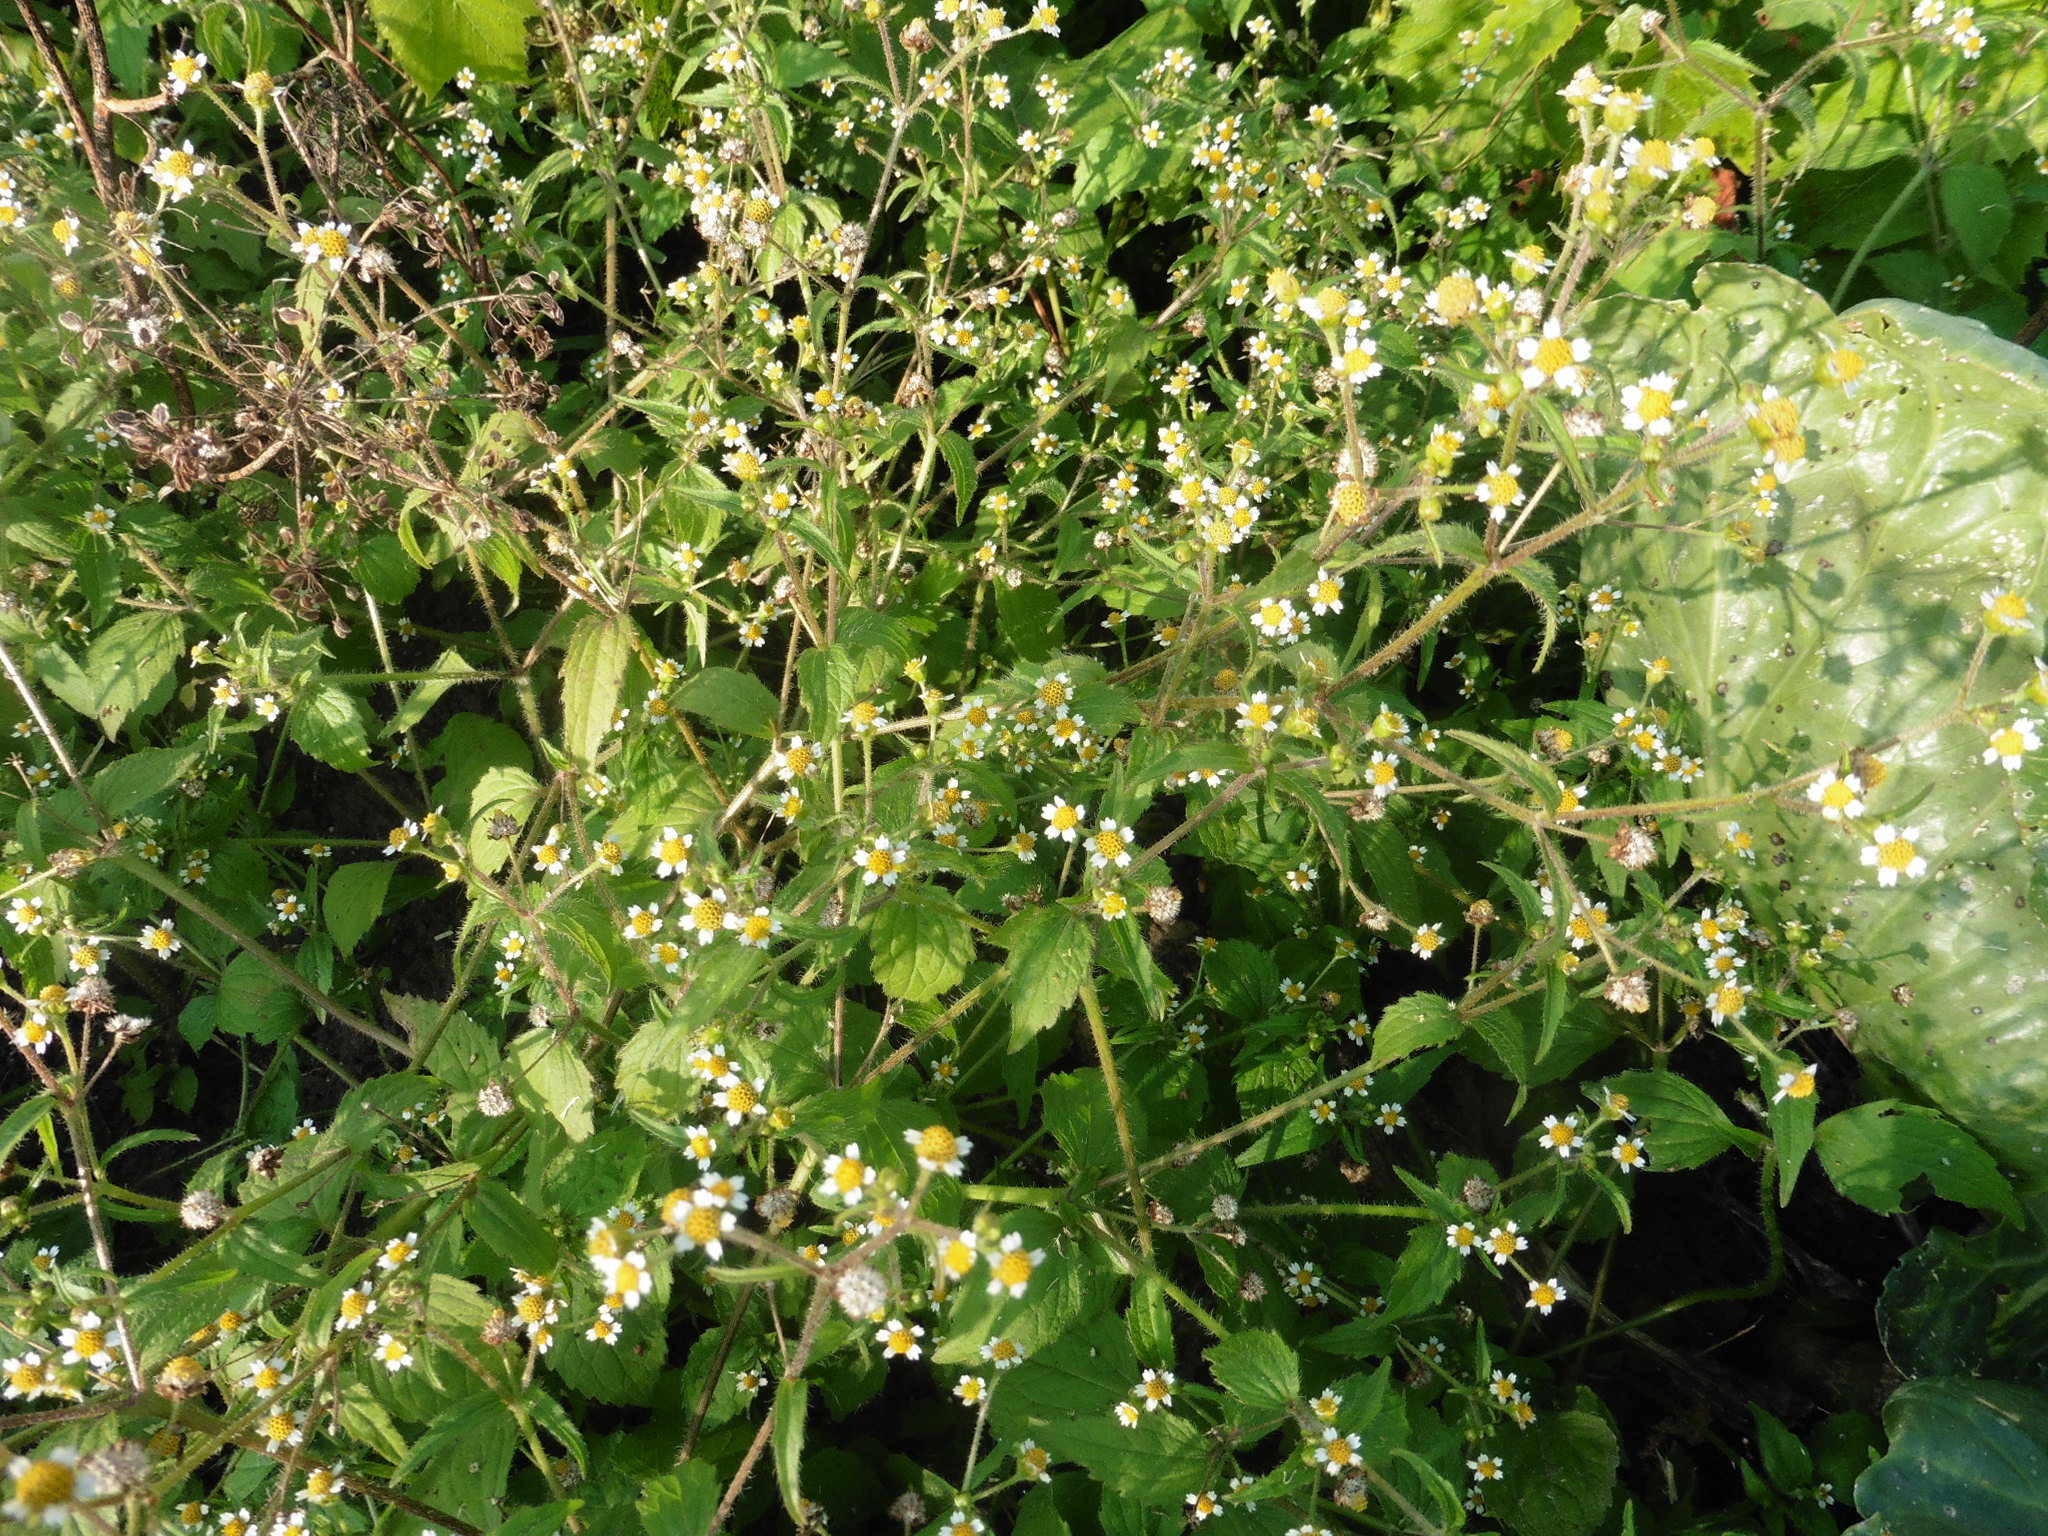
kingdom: Plantae
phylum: Tracheophyta
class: Magnoliopsida
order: Asterales
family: Asteraceae
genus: Galinsoga
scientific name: Galinsoga quadriradiata
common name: Shaggy soldier
